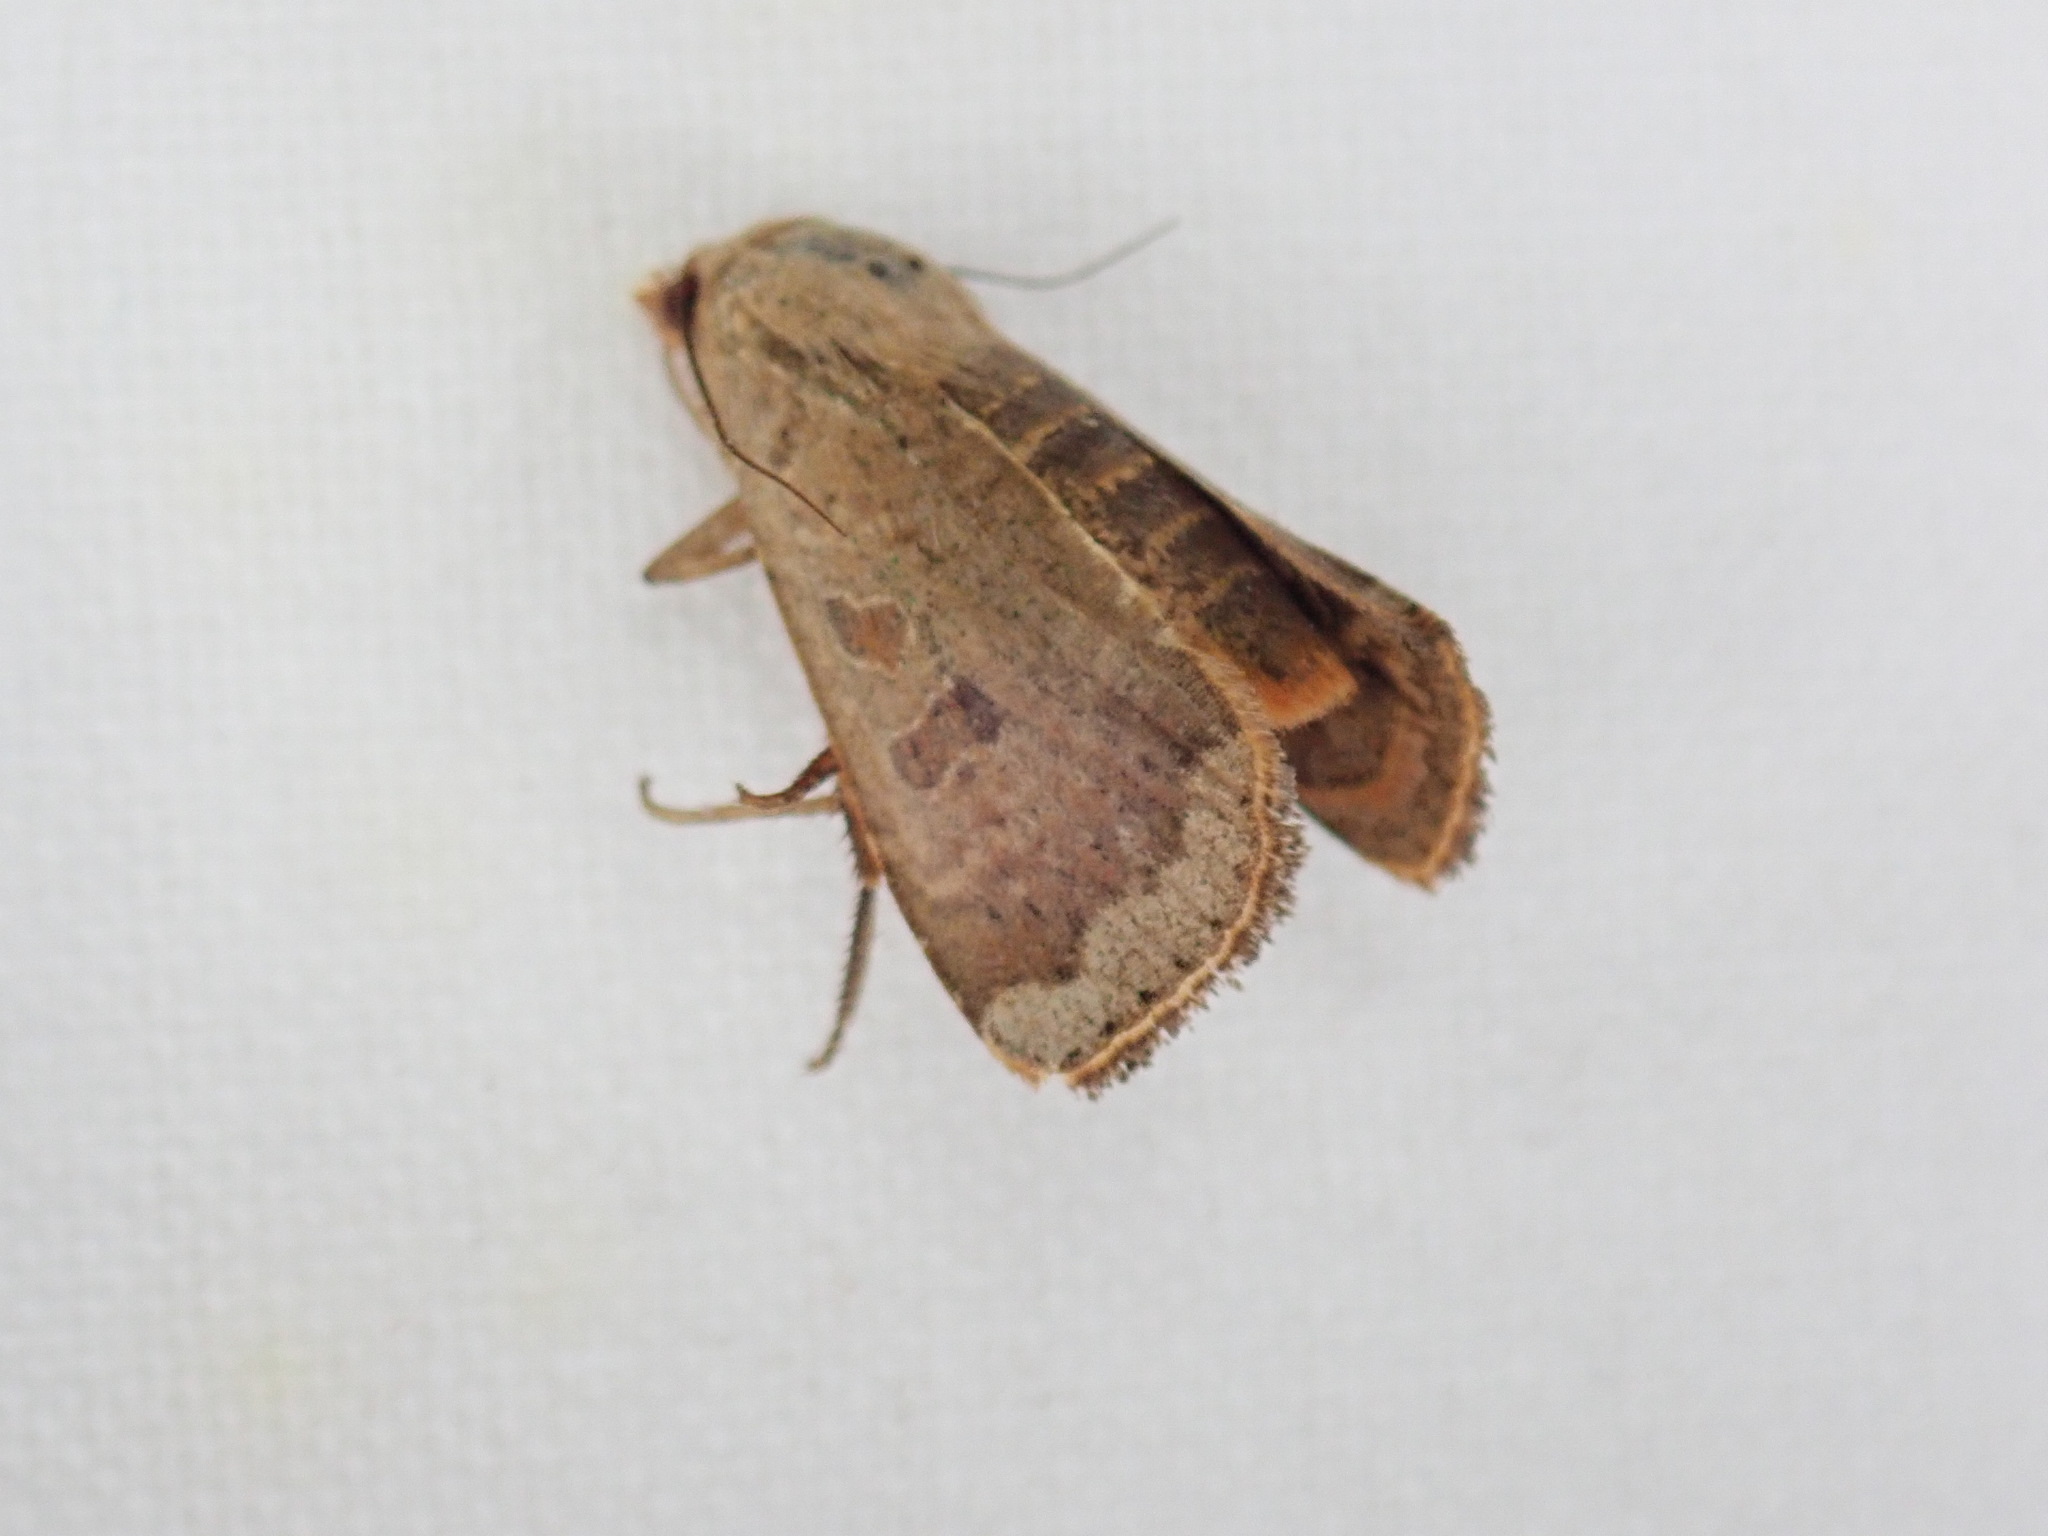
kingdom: Animalia
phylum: Arthropoda
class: Insecta
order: Lepidoptera
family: Noctuidae
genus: Abagrotis
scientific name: Abagrotis alternata
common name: Greater red dart
